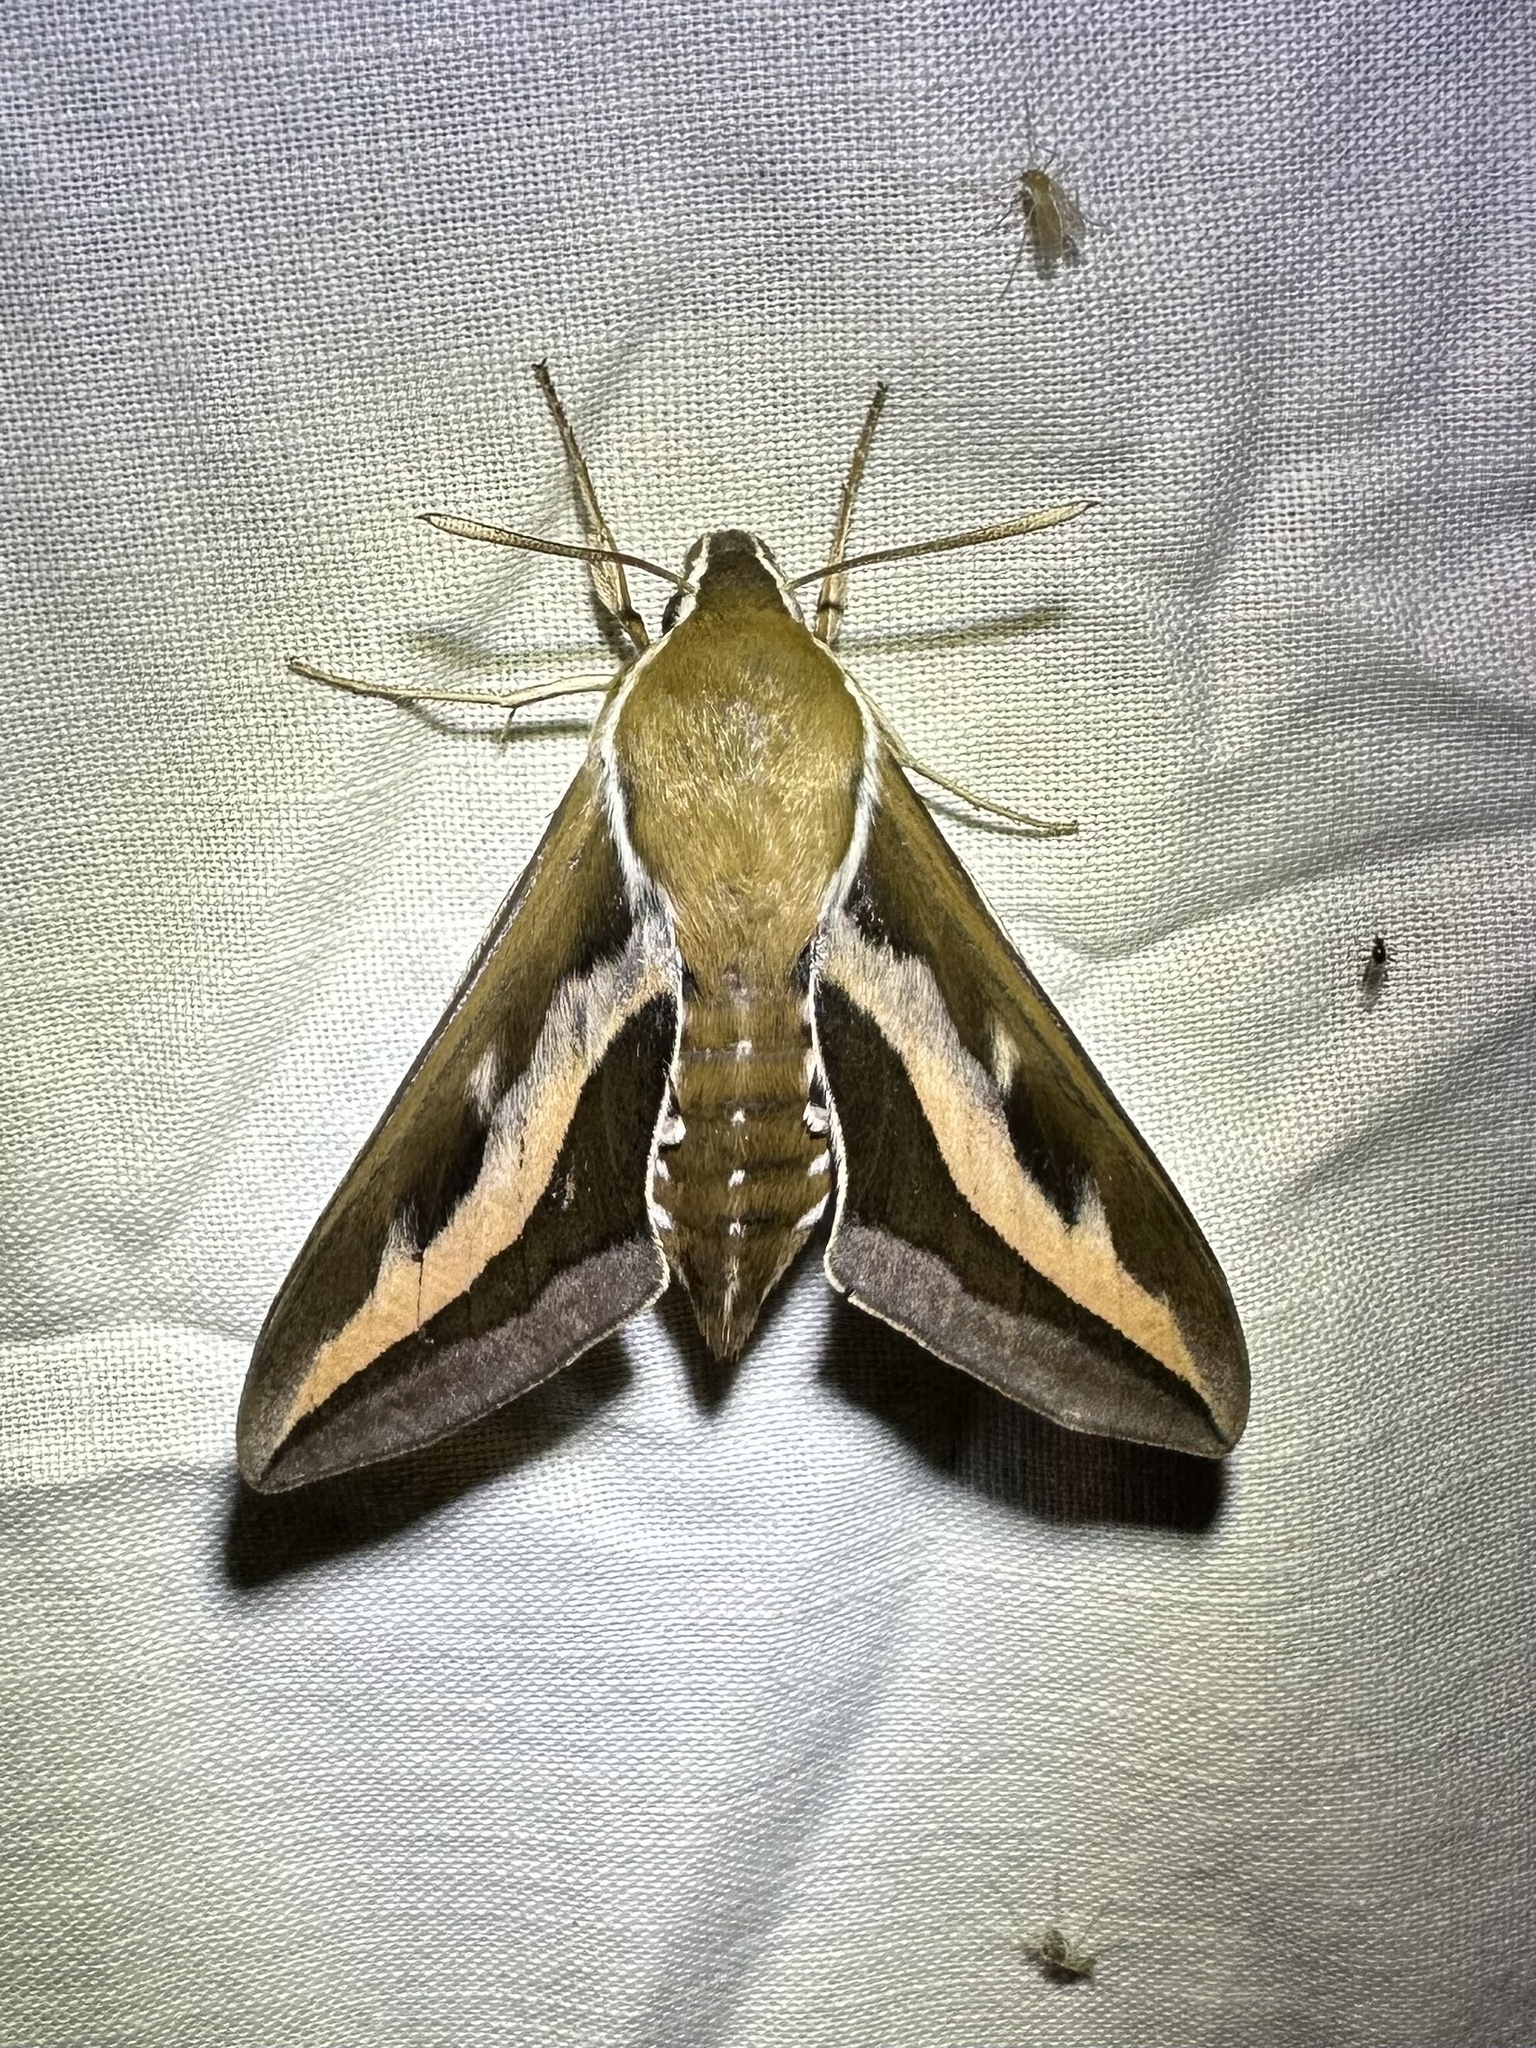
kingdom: Animalia
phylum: Arthropoda
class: Insecta
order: Lepidoptera
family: Sphingidae
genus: Hyles
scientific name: Hyles gallii
